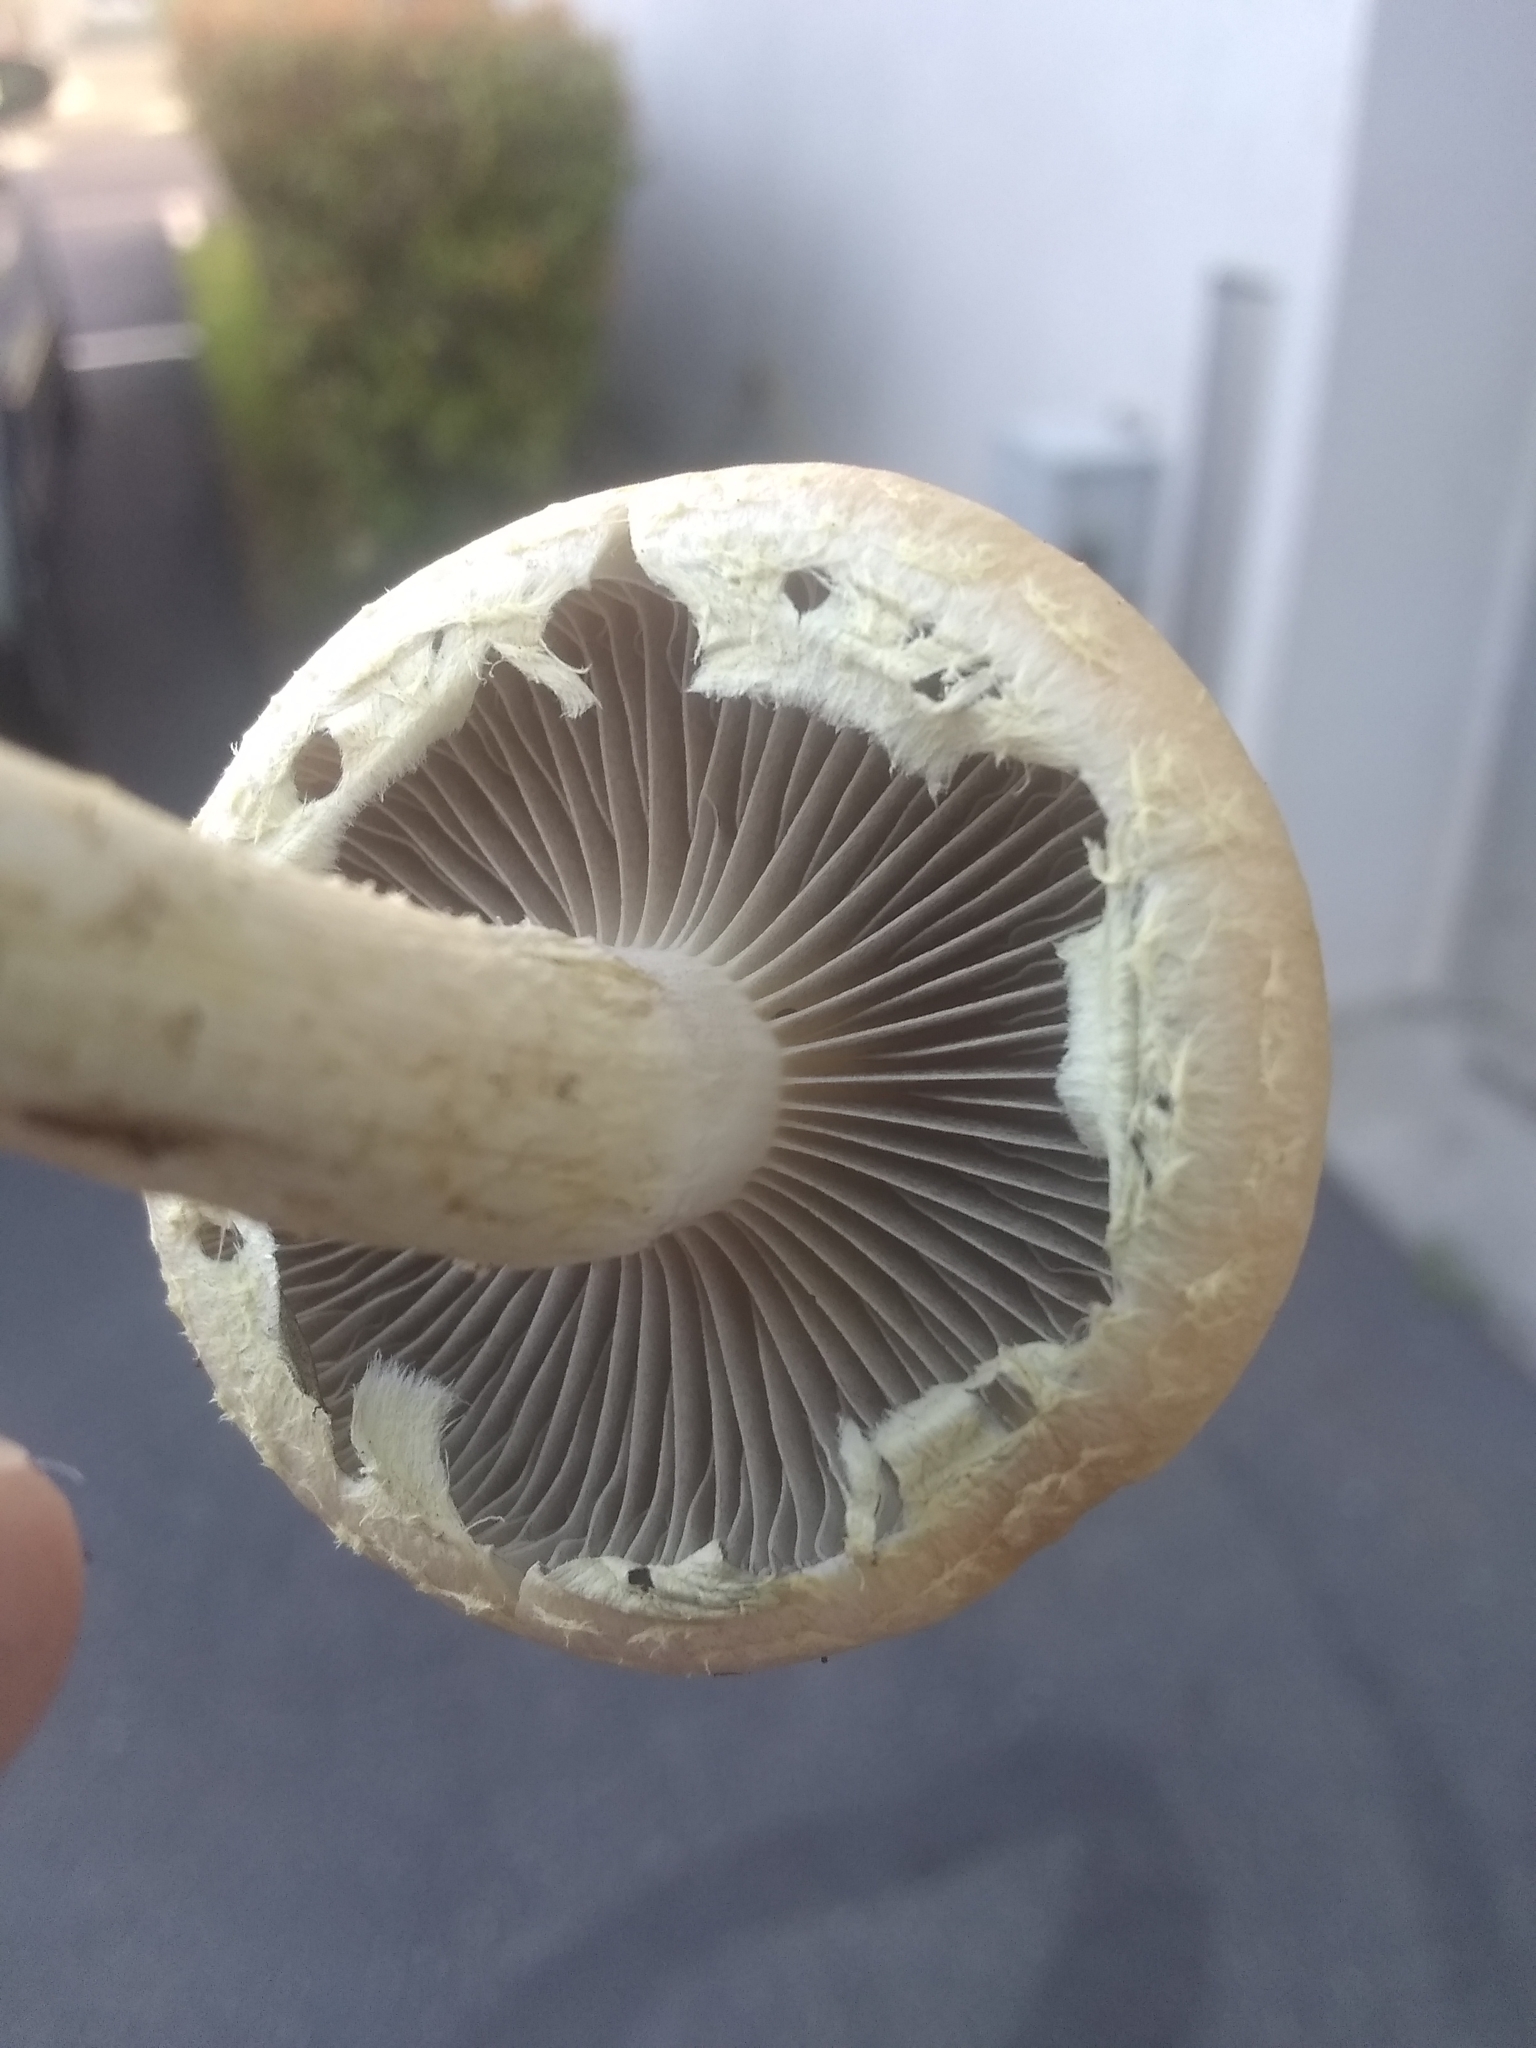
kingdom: Fungi
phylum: Basidiomycota
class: Agaricomycetes
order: Agaricales
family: Strophariaceae
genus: Leratiomyces
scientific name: Leratiomyces percevalii
